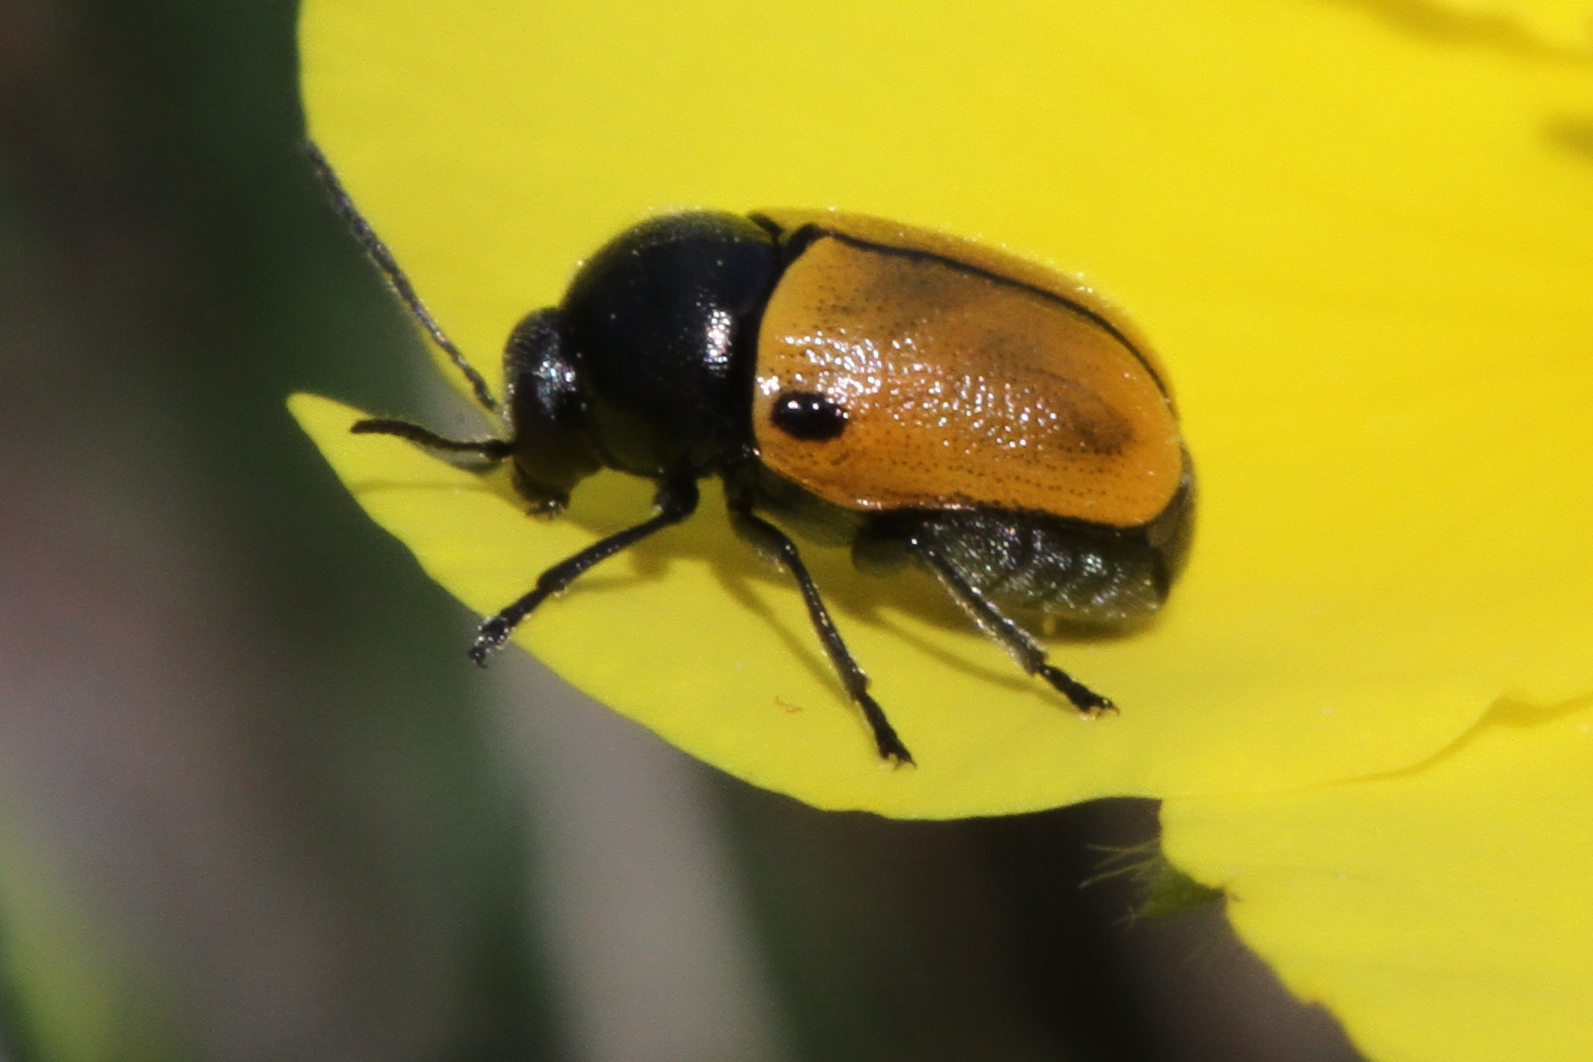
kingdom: Animalia
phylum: Arthropoda
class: Insecta
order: Coleoptera
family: Chrysomelidae
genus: Cryptocephalus
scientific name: Cryptocephalus rugicollis
